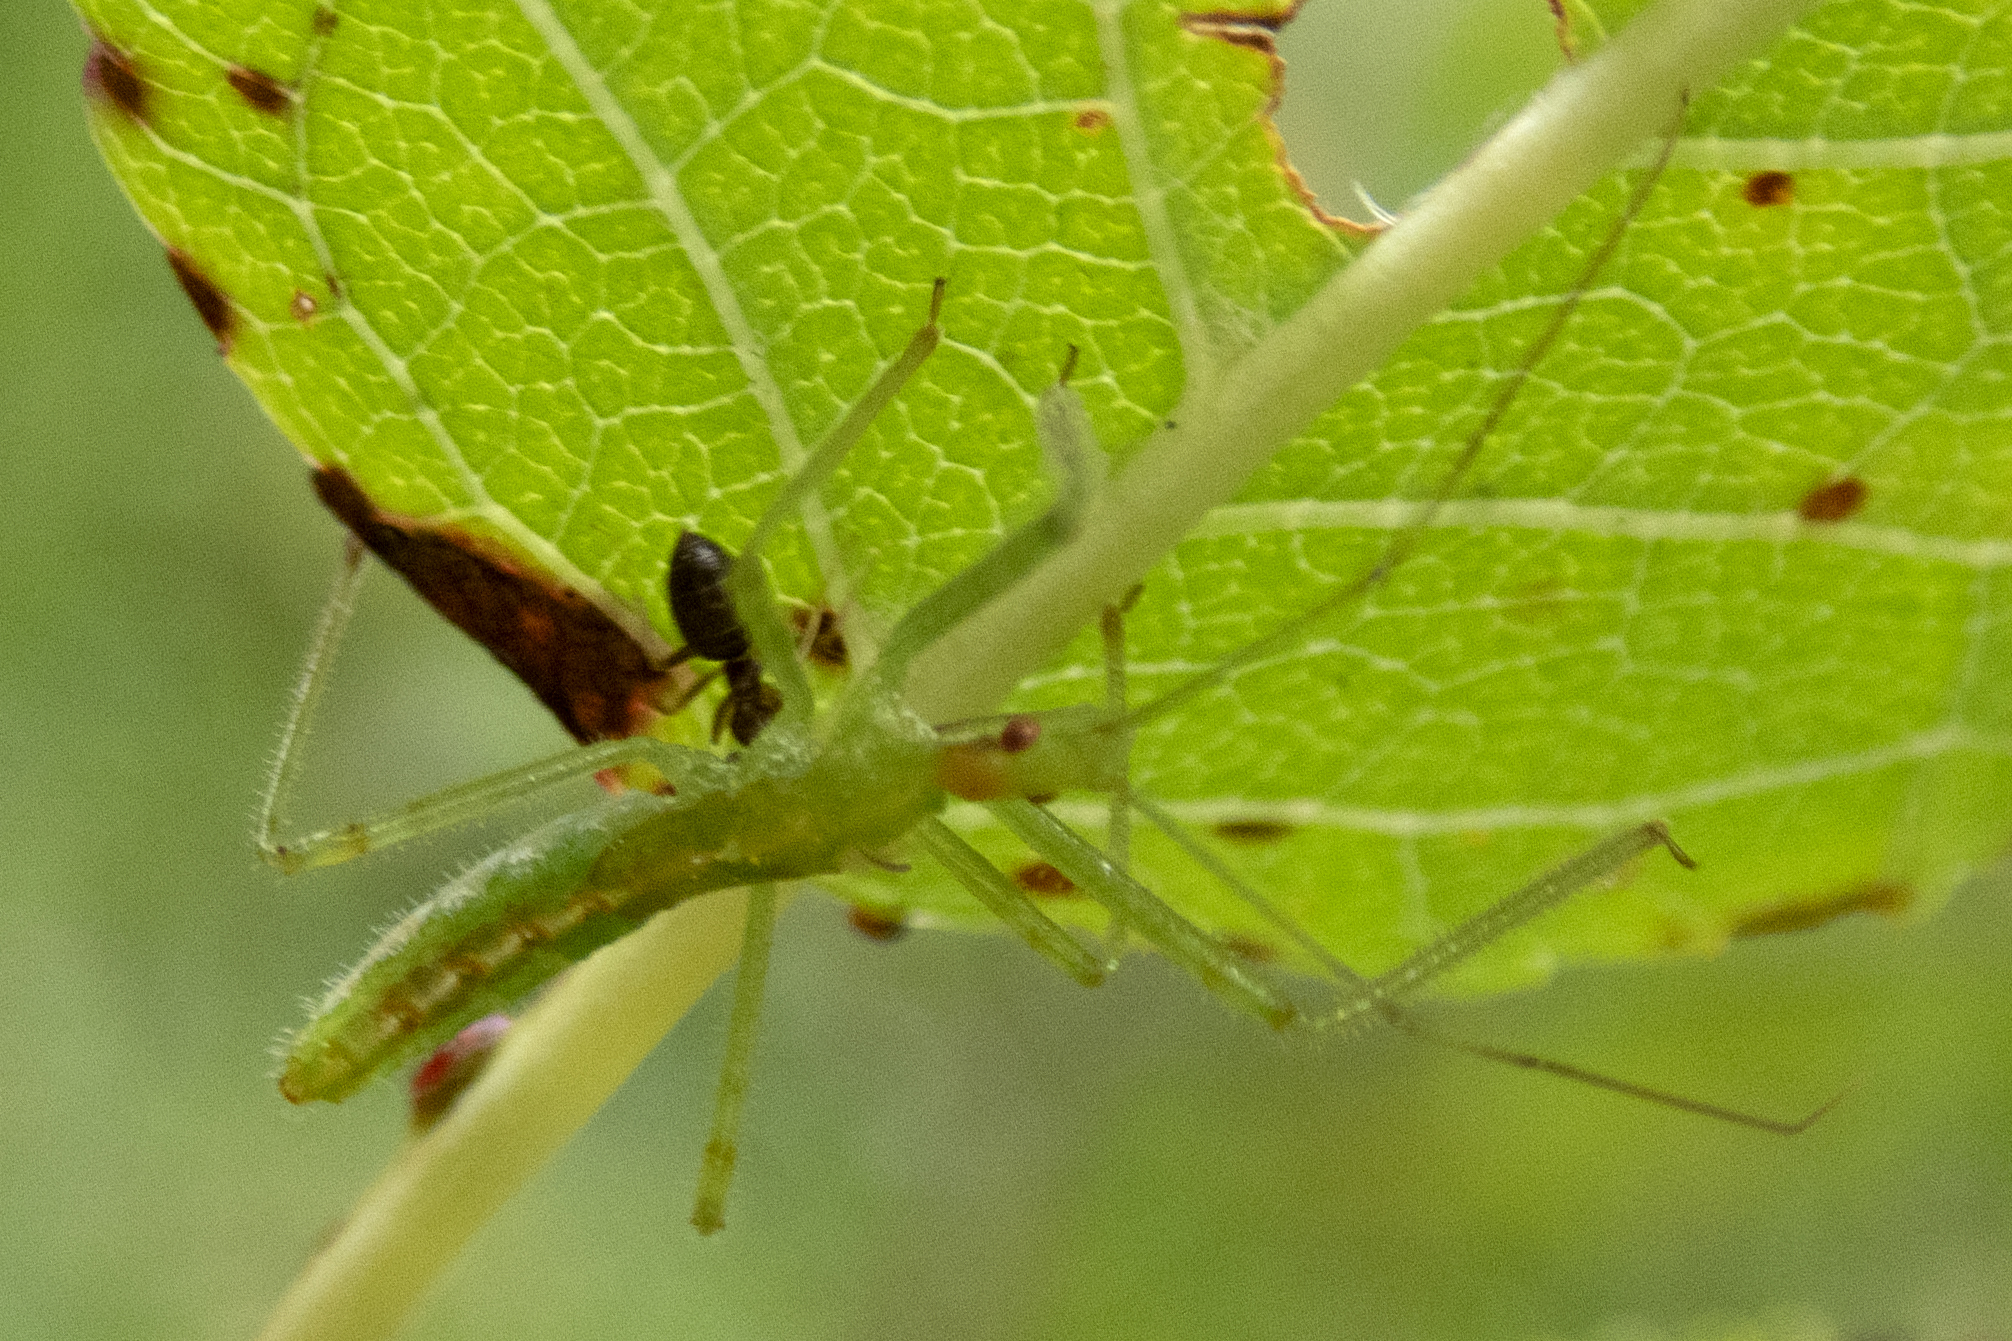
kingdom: Animalia
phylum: Arthropoda
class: Insecta
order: Hemiptera
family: Reduviidae
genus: Zelus
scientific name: Zelus luridus
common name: Pale green assassin bug
